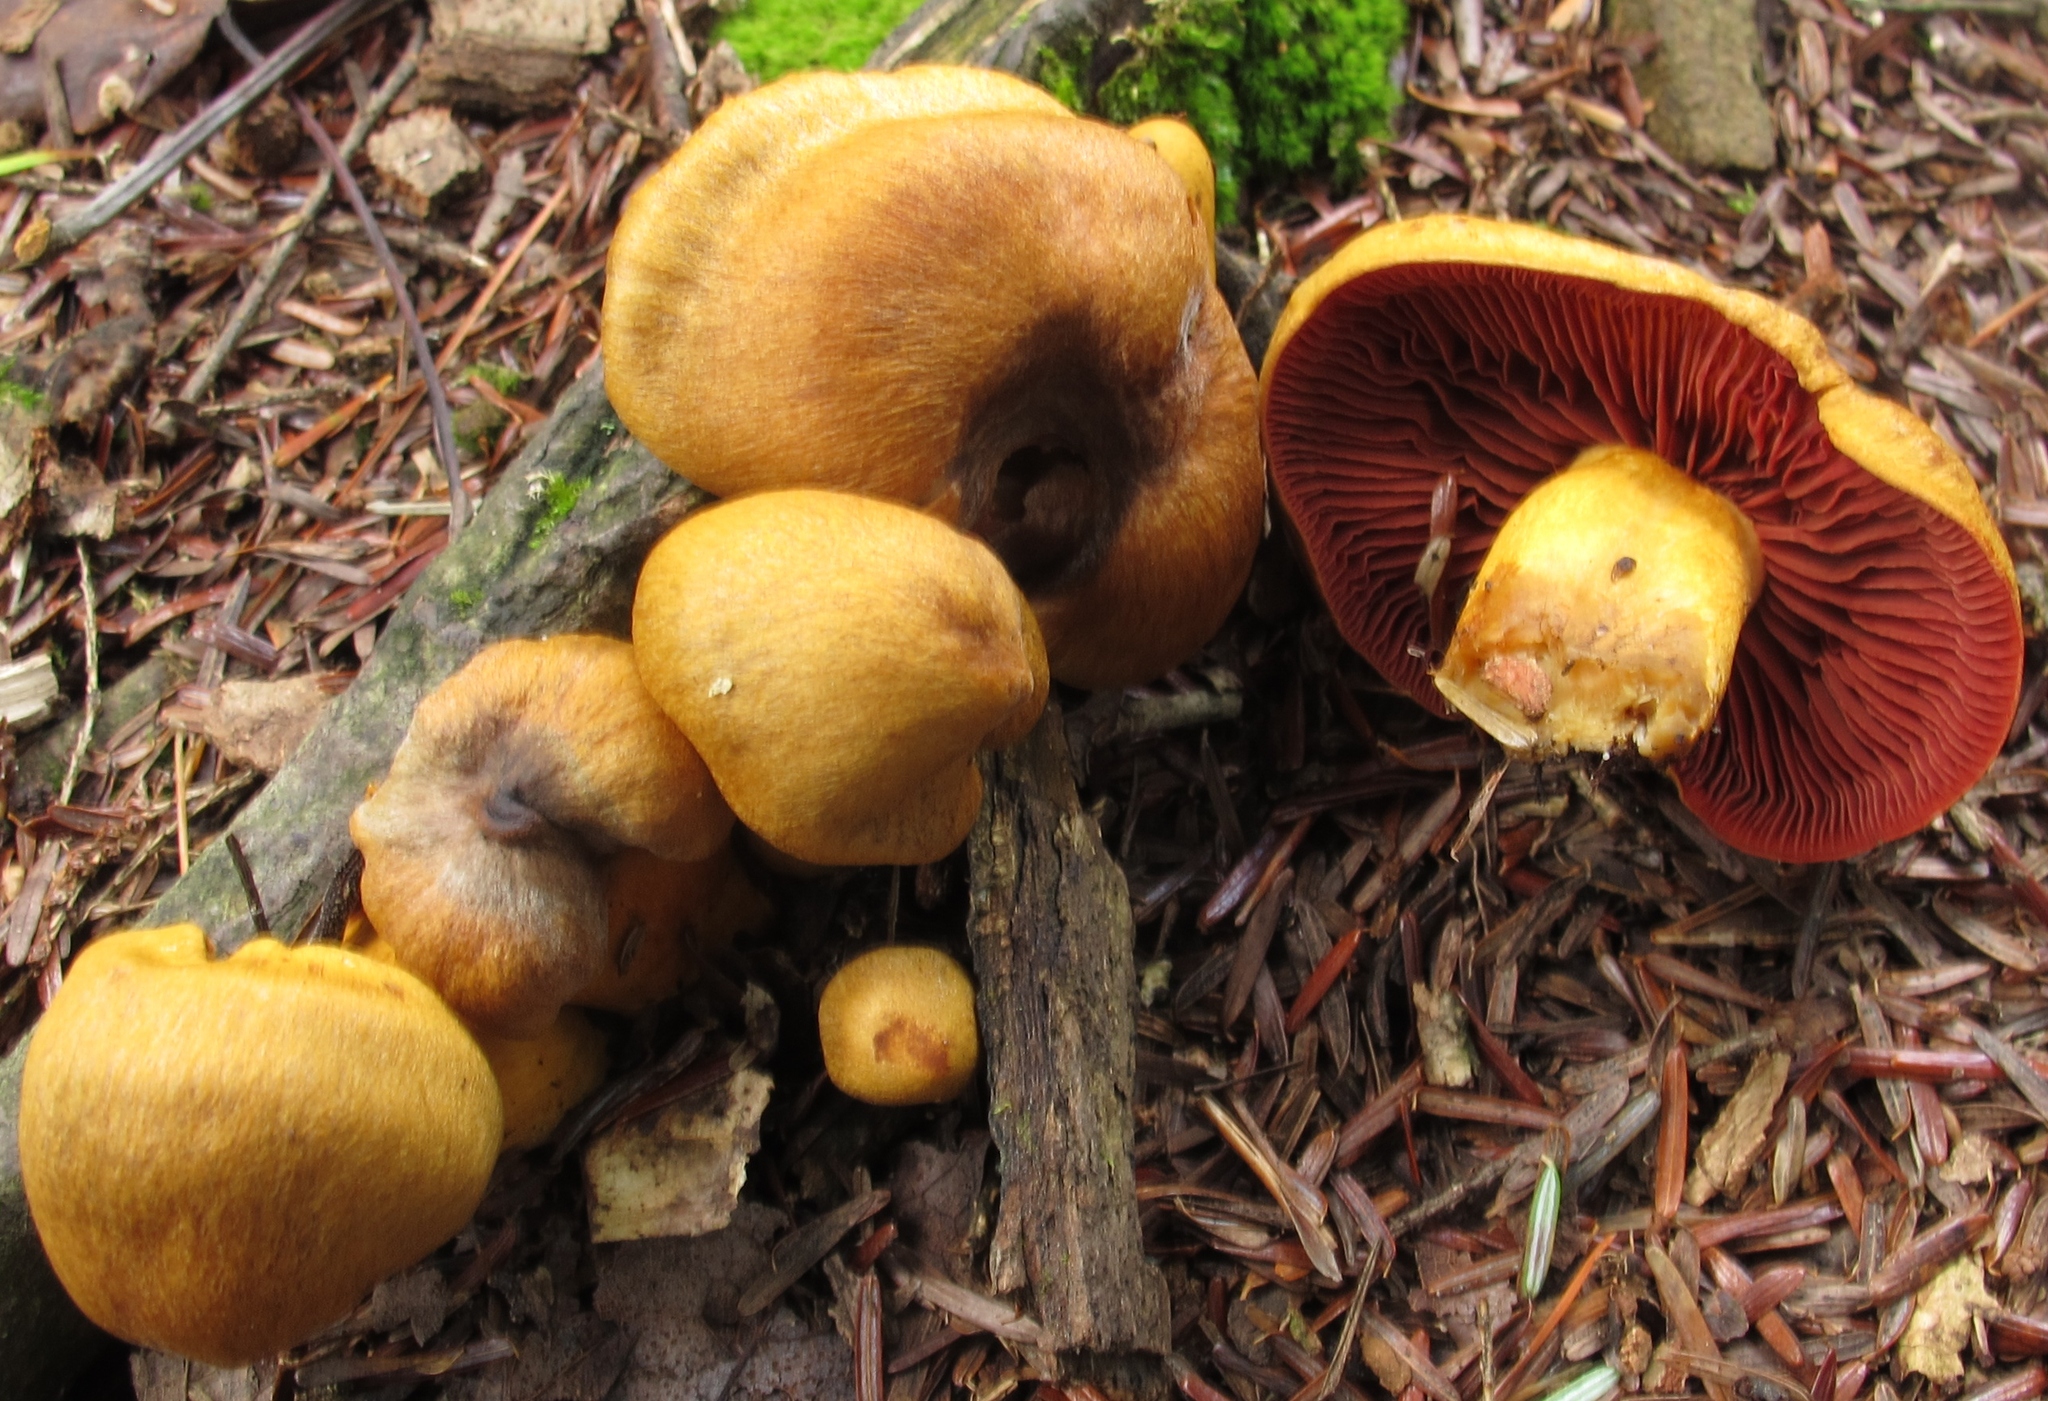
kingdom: Fungi
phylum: Basidiomycota
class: Agaricomycetes
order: Agaricales
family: Cortinariaceae
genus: Cortinarius
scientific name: Cortinarius semisanguineus
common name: Surprise webcap
